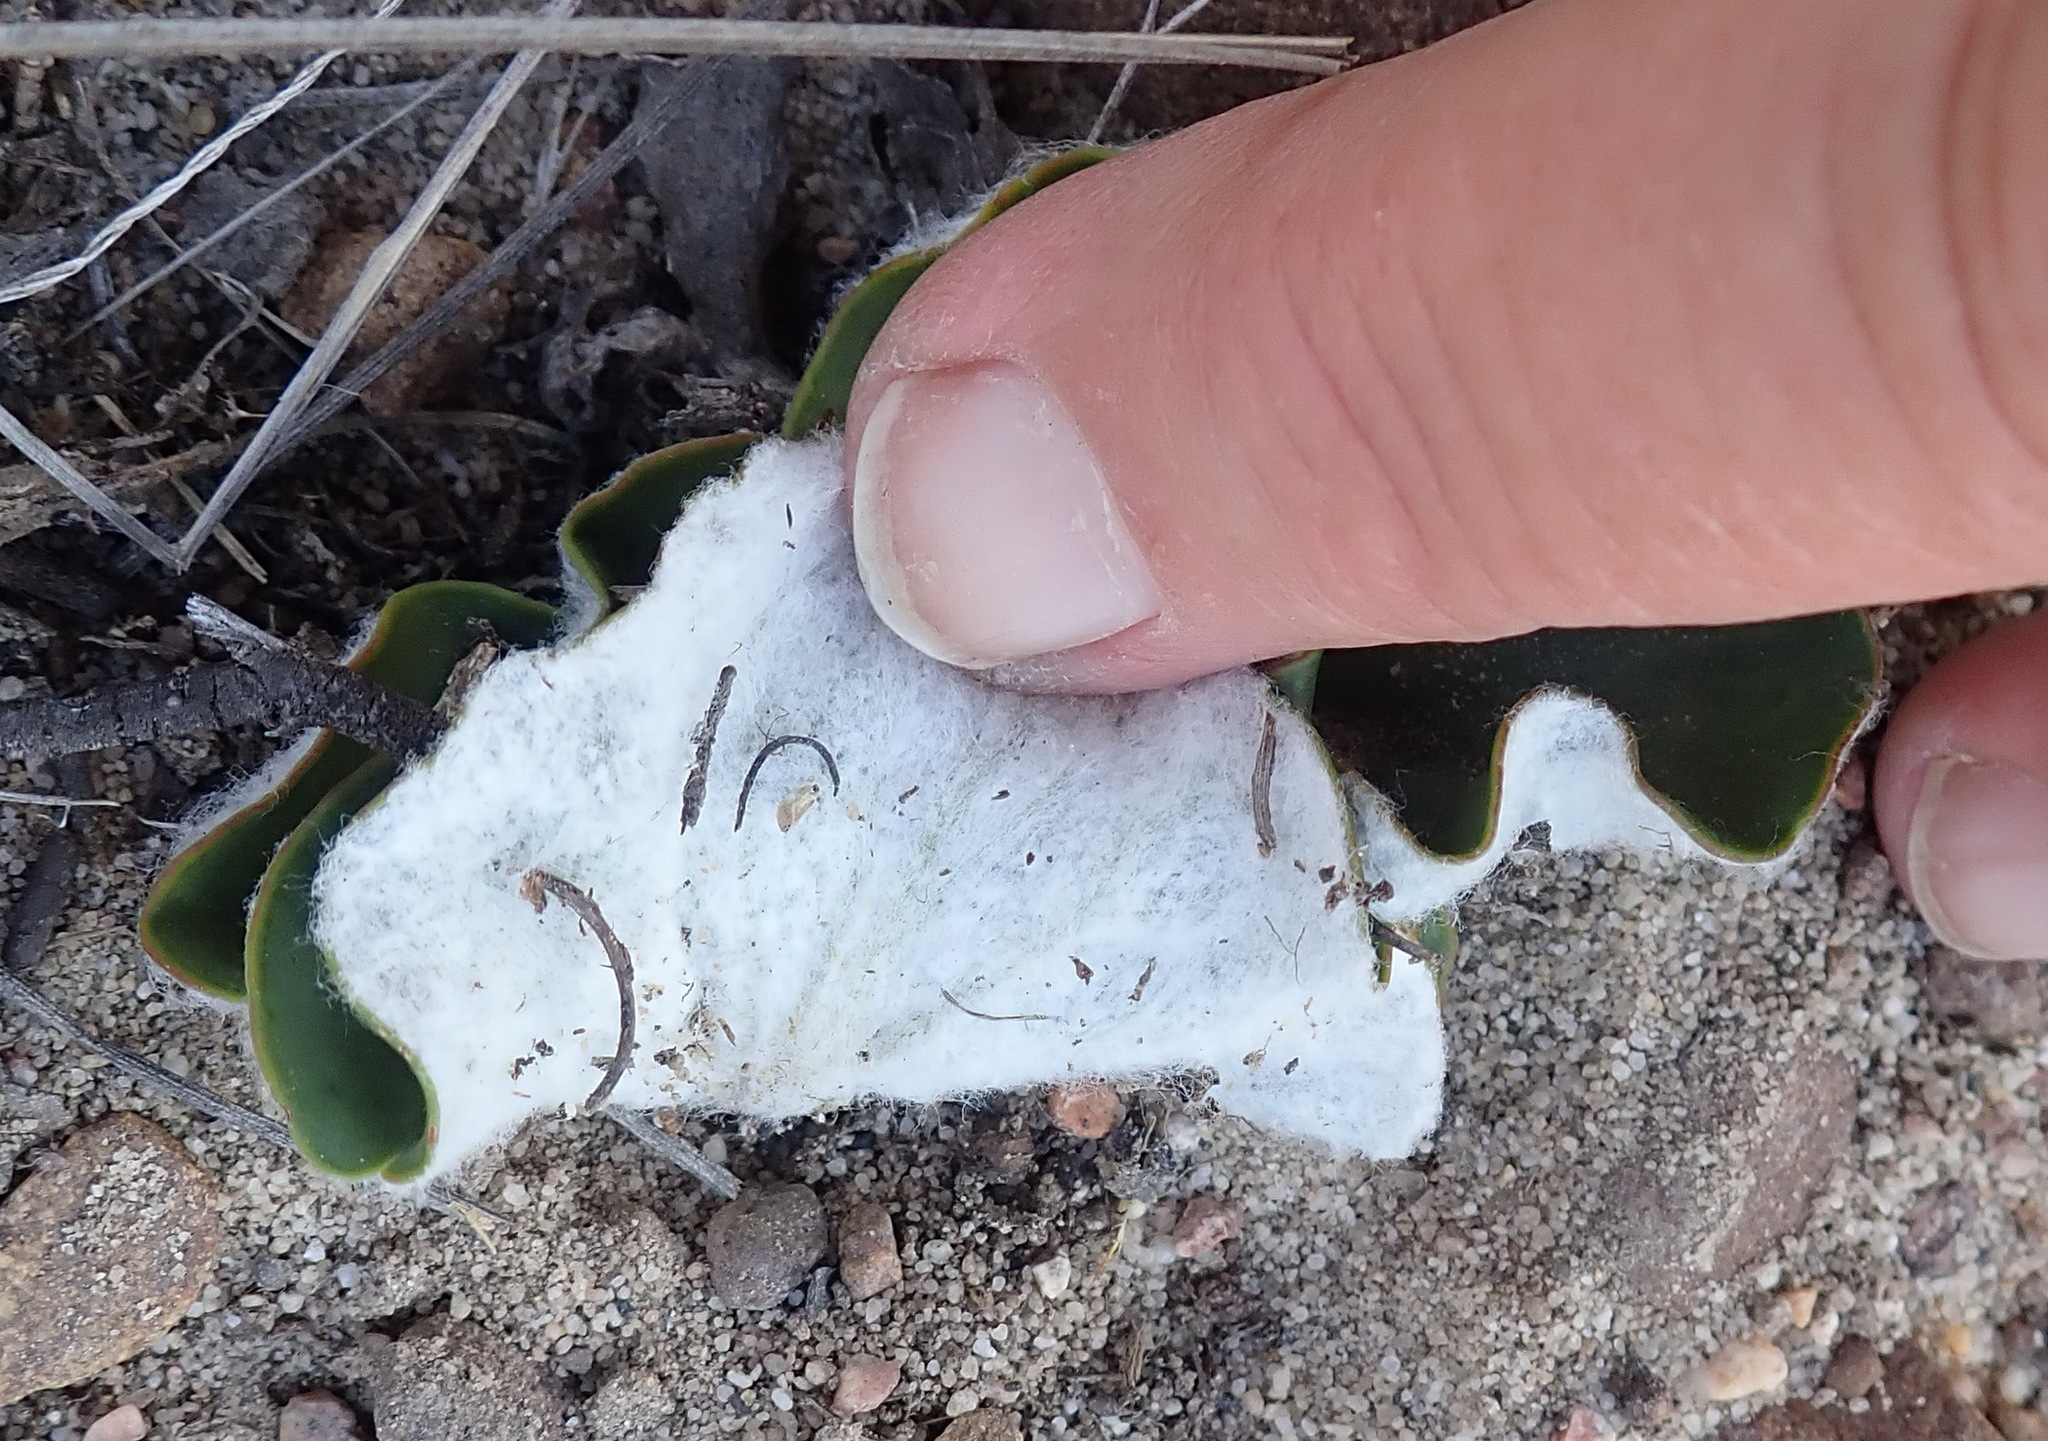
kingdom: Plantae
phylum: Tracheophyta
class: Magnoliopsida
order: Geraniales
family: Geraniaceae
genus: Pelargonium
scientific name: Pelargonium asarifolium
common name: Asarum-leaf pelargonium
